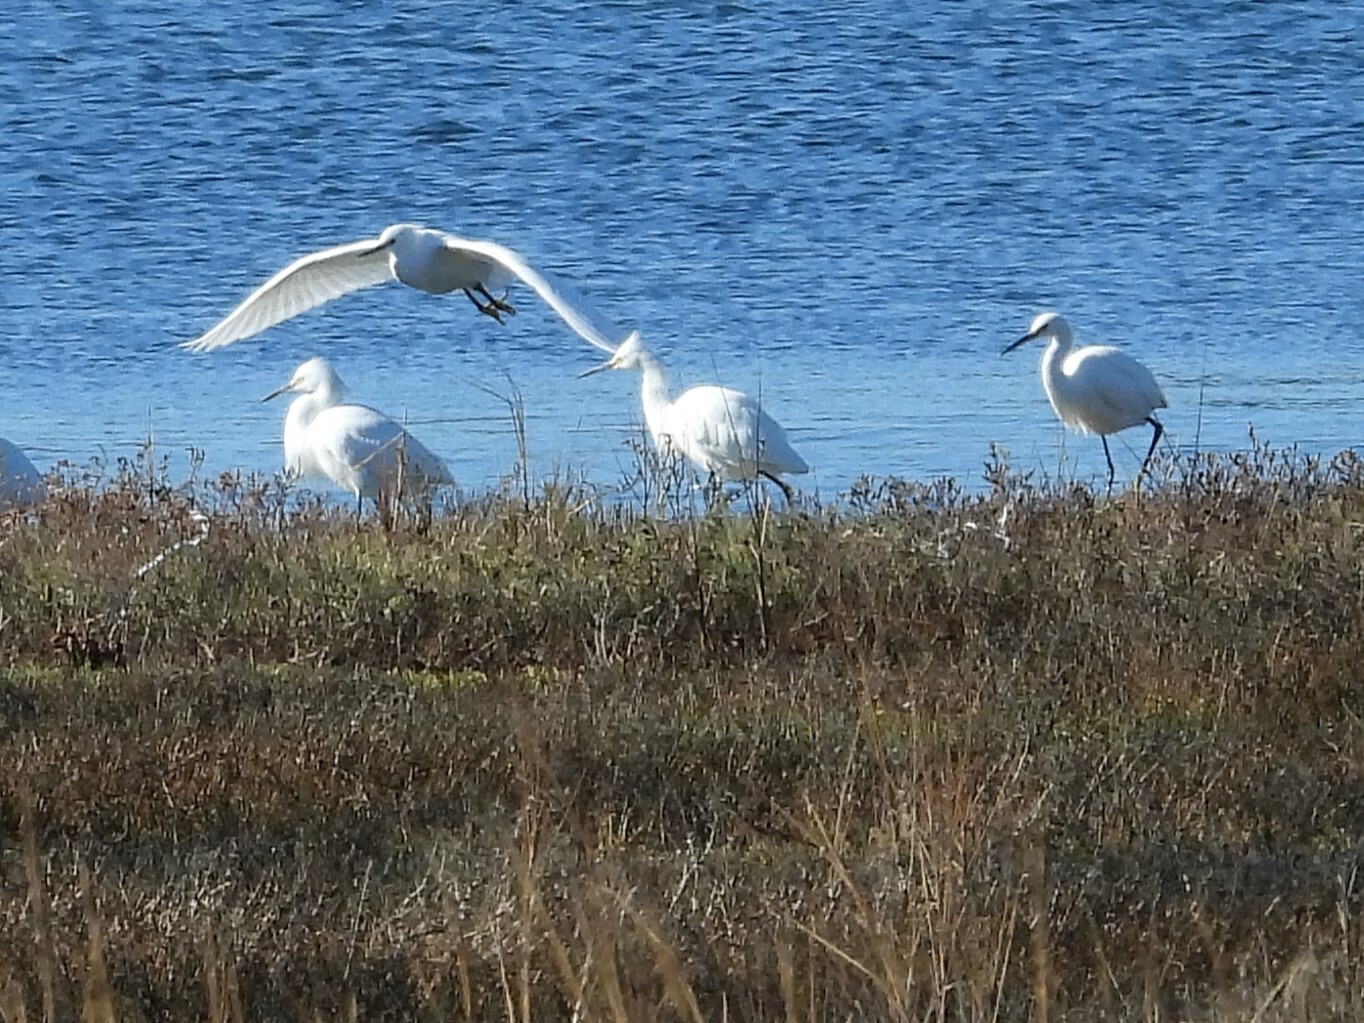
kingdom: Animalia
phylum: Chordata
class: Aves
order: Pelecaniformes
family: Ardeidae
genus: Egretta
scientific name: Egretta thula
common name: Snowy egret
